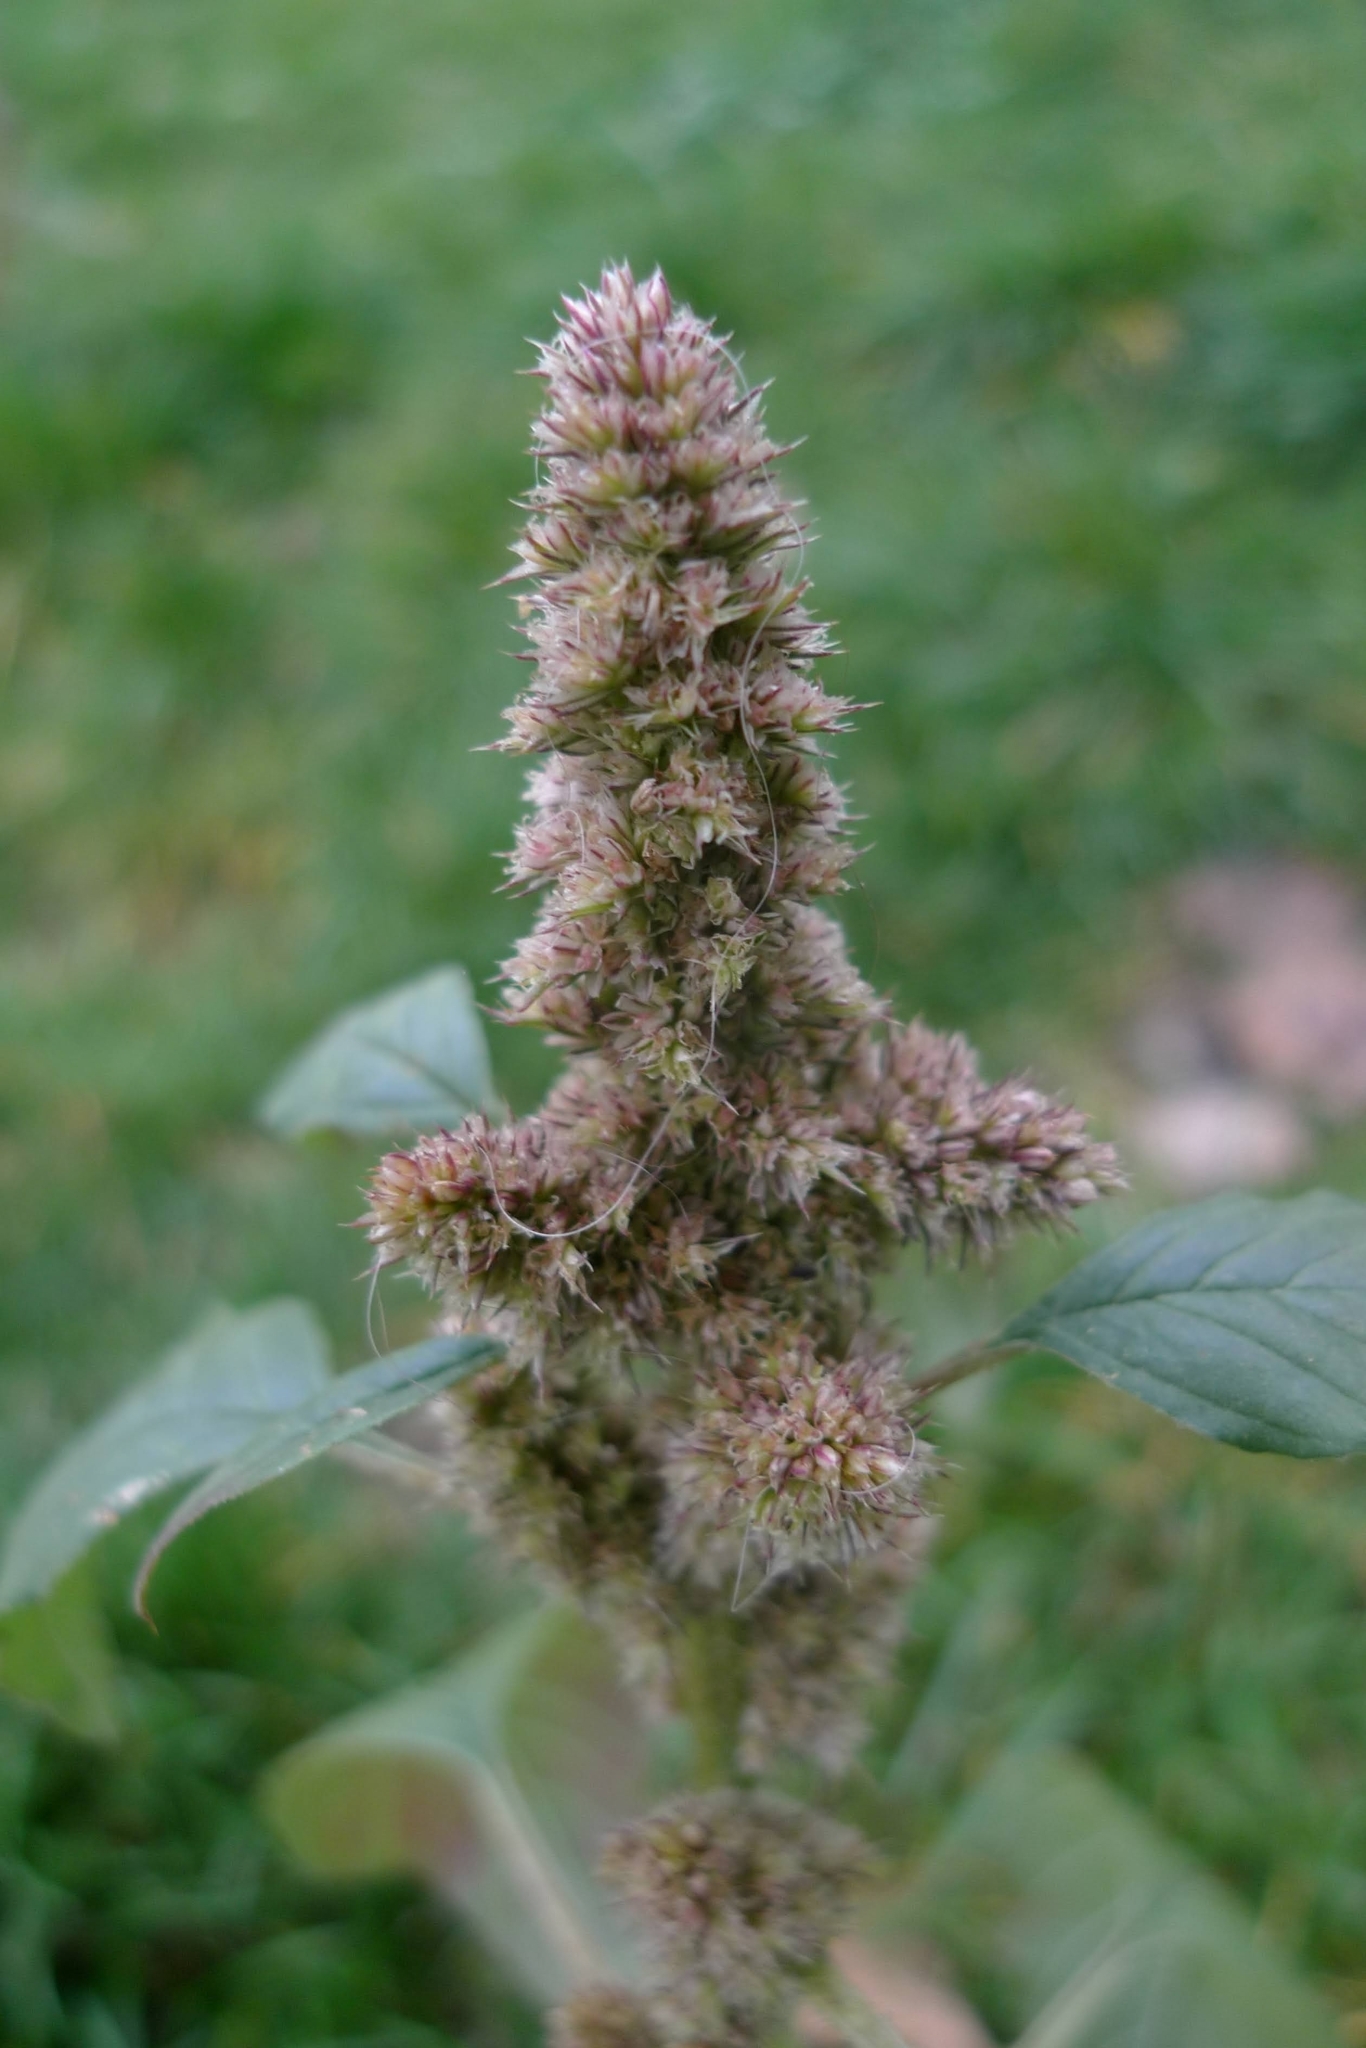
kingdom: Plantae
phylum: Tracheophyta
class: Magnoliopsida
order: Caryophyllales
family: Amaranthaceae
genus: Amaranthus
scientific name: Amaranthus retroflexus
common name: Redroot amaranth
